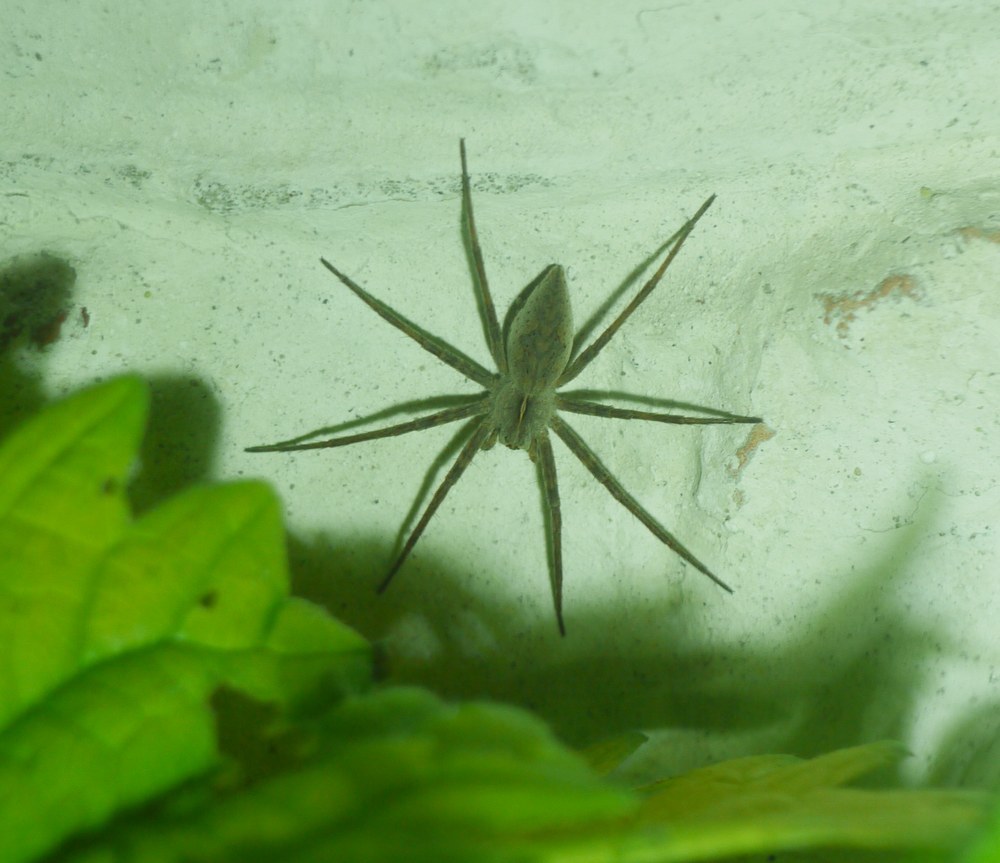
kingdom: Animalia
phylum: Arthropoda
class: Arachnida
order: Araneae
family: Pisauridae
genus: Pisaura
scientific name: Pisaura
